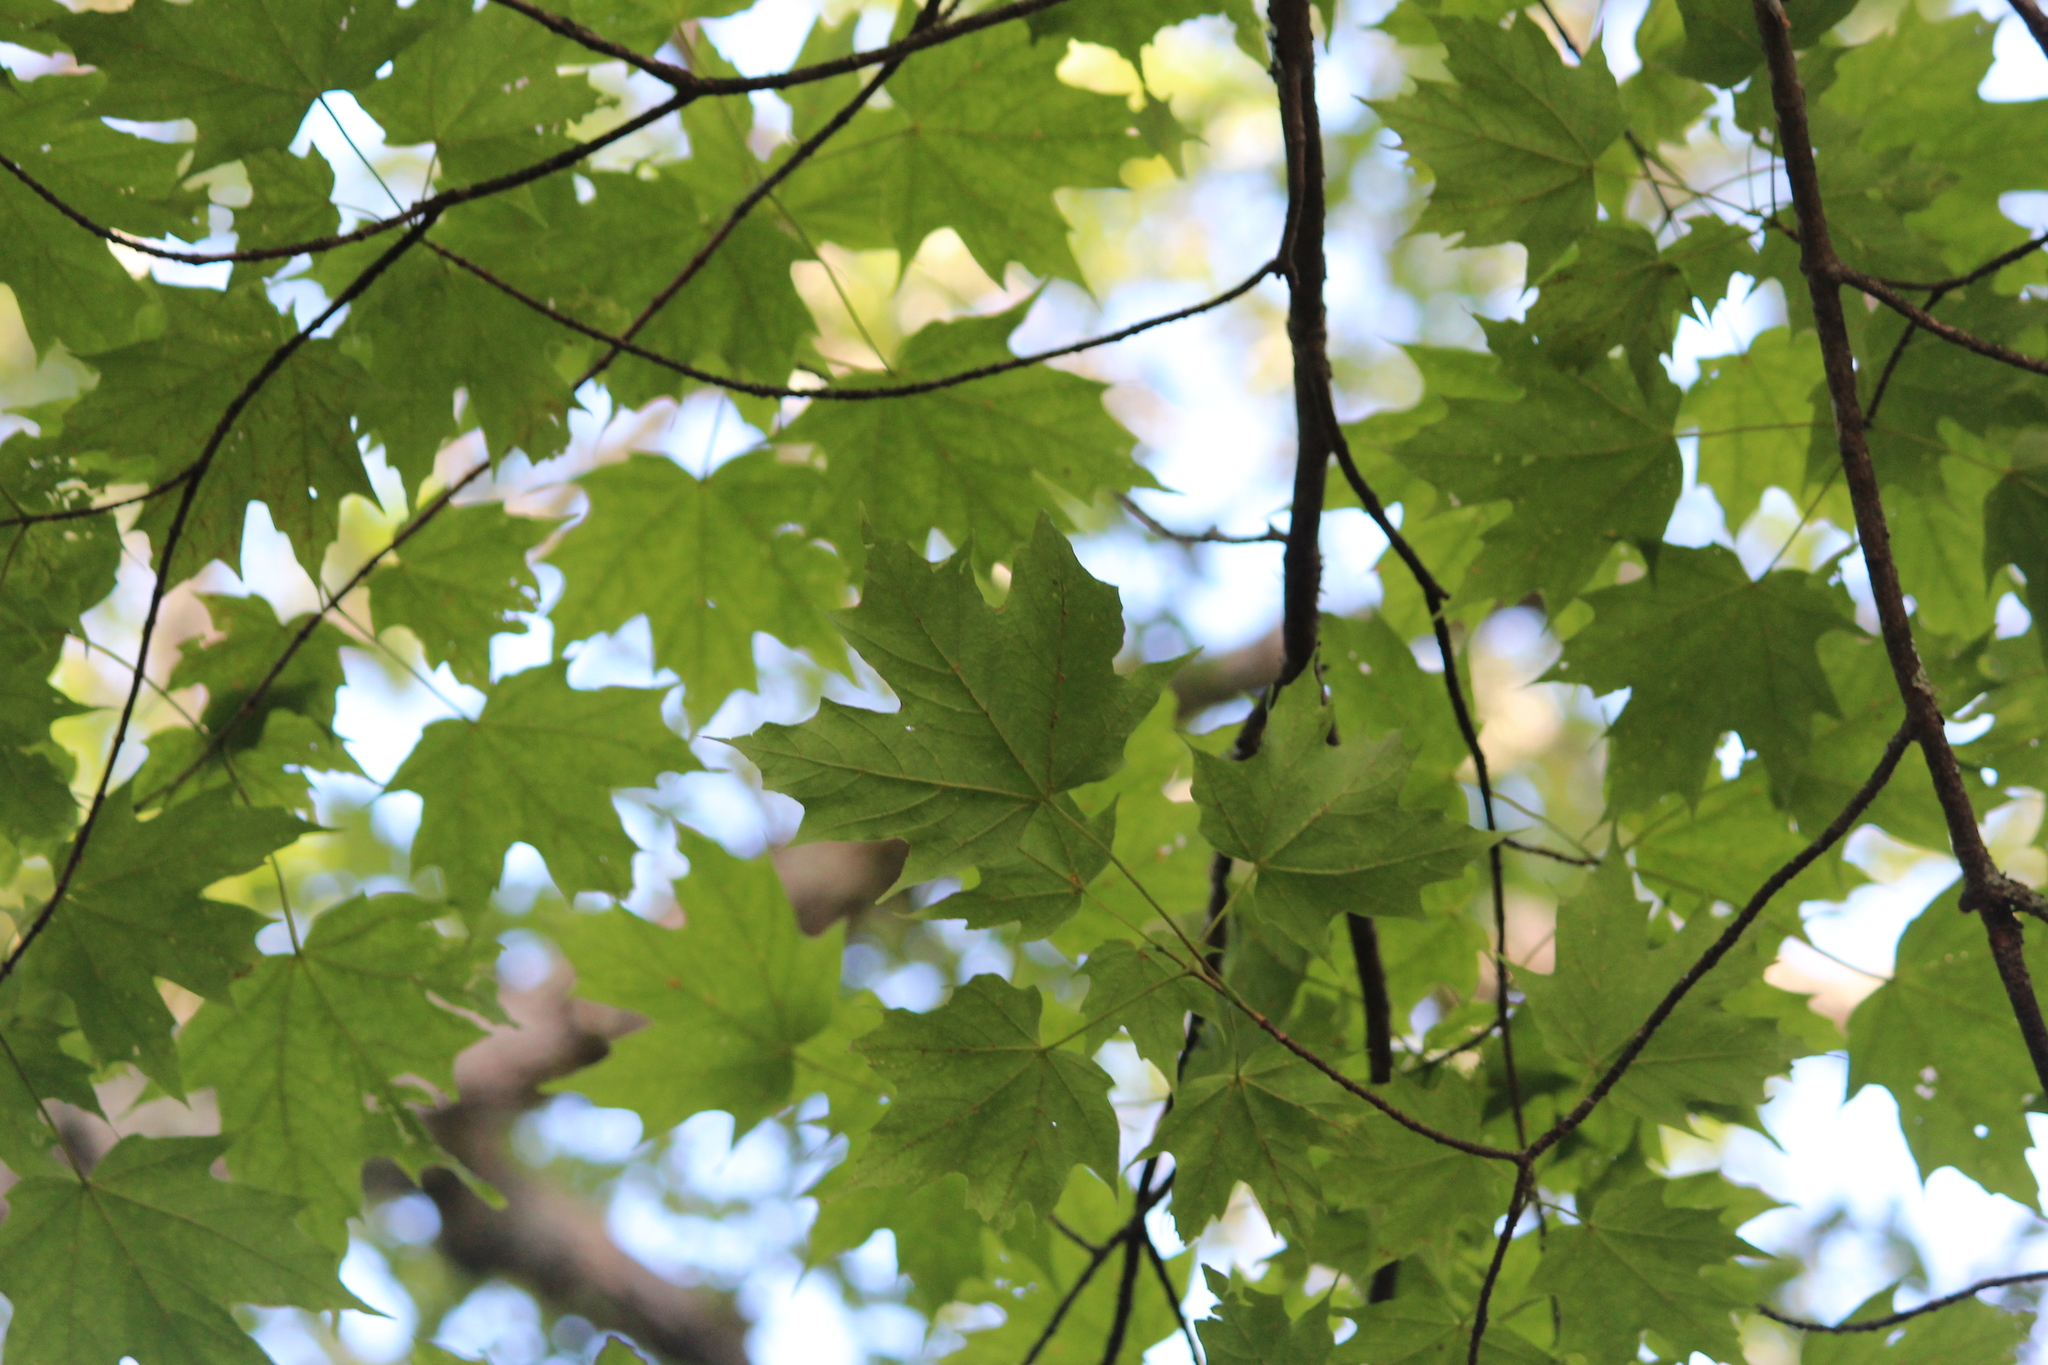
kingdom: Plantae
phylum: Tracheophyta
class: Magnoliopsida
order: Sapindales
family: Sapindaceae
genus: Acer
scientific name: Acer saccharum
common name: Sugar maple
